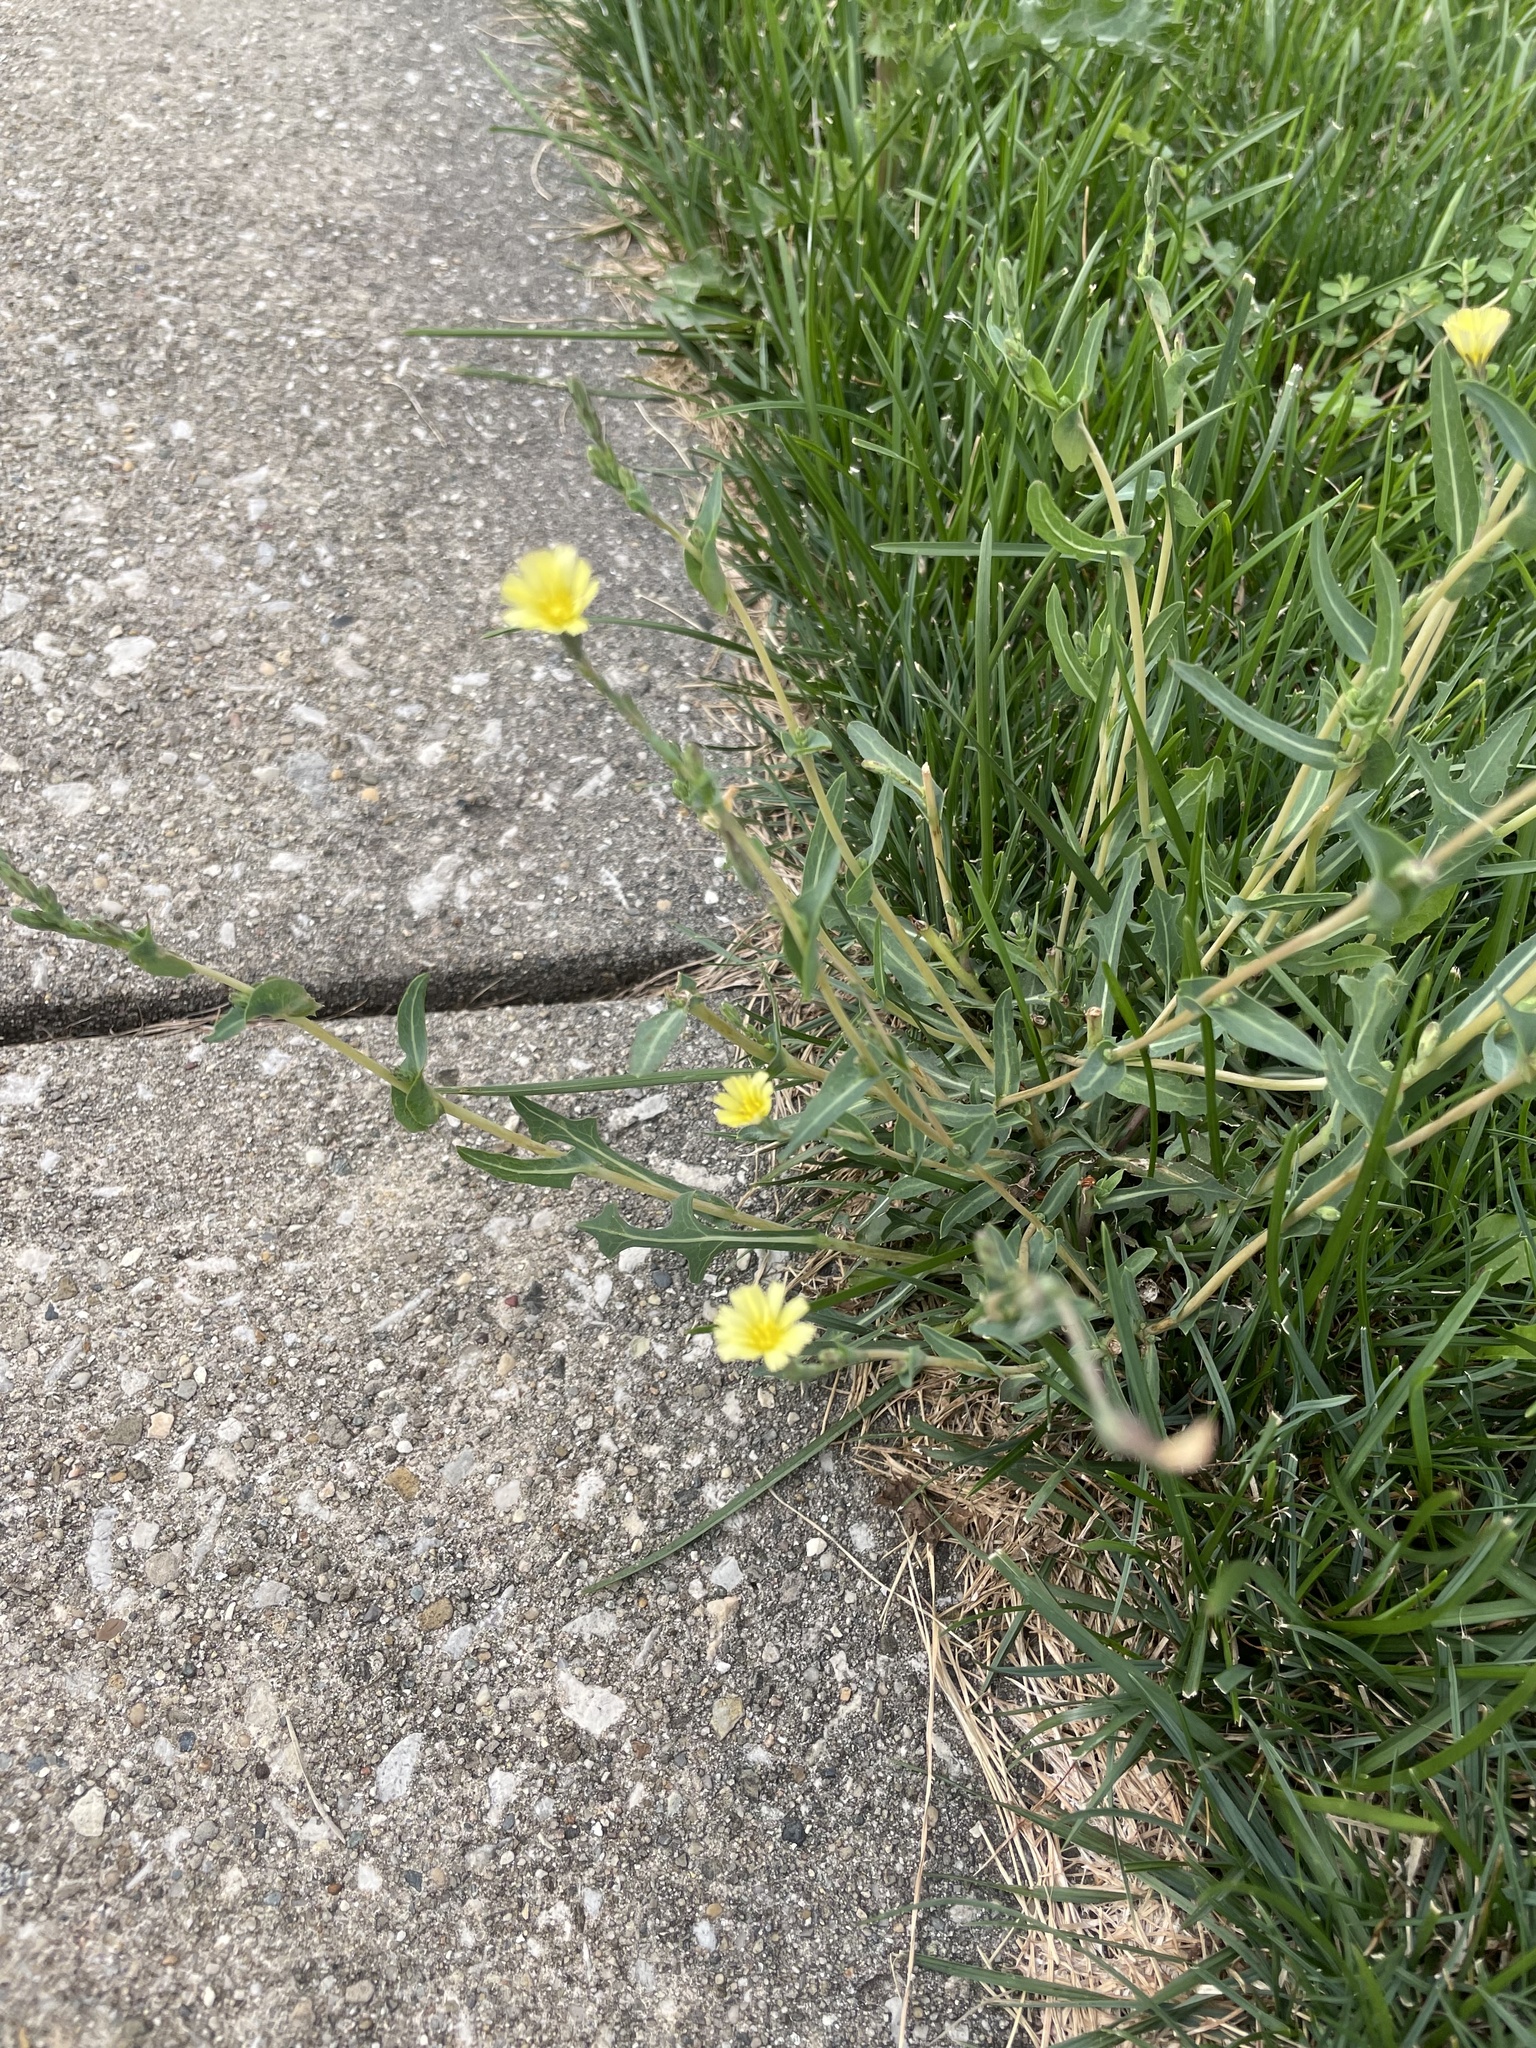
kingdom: Plantae
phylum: Tracheophyta
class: Magnoliopsida
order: Asterales
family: Asteraceae
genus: Lactuca
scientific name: Lactuca serriola
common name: Prickly lettuce
